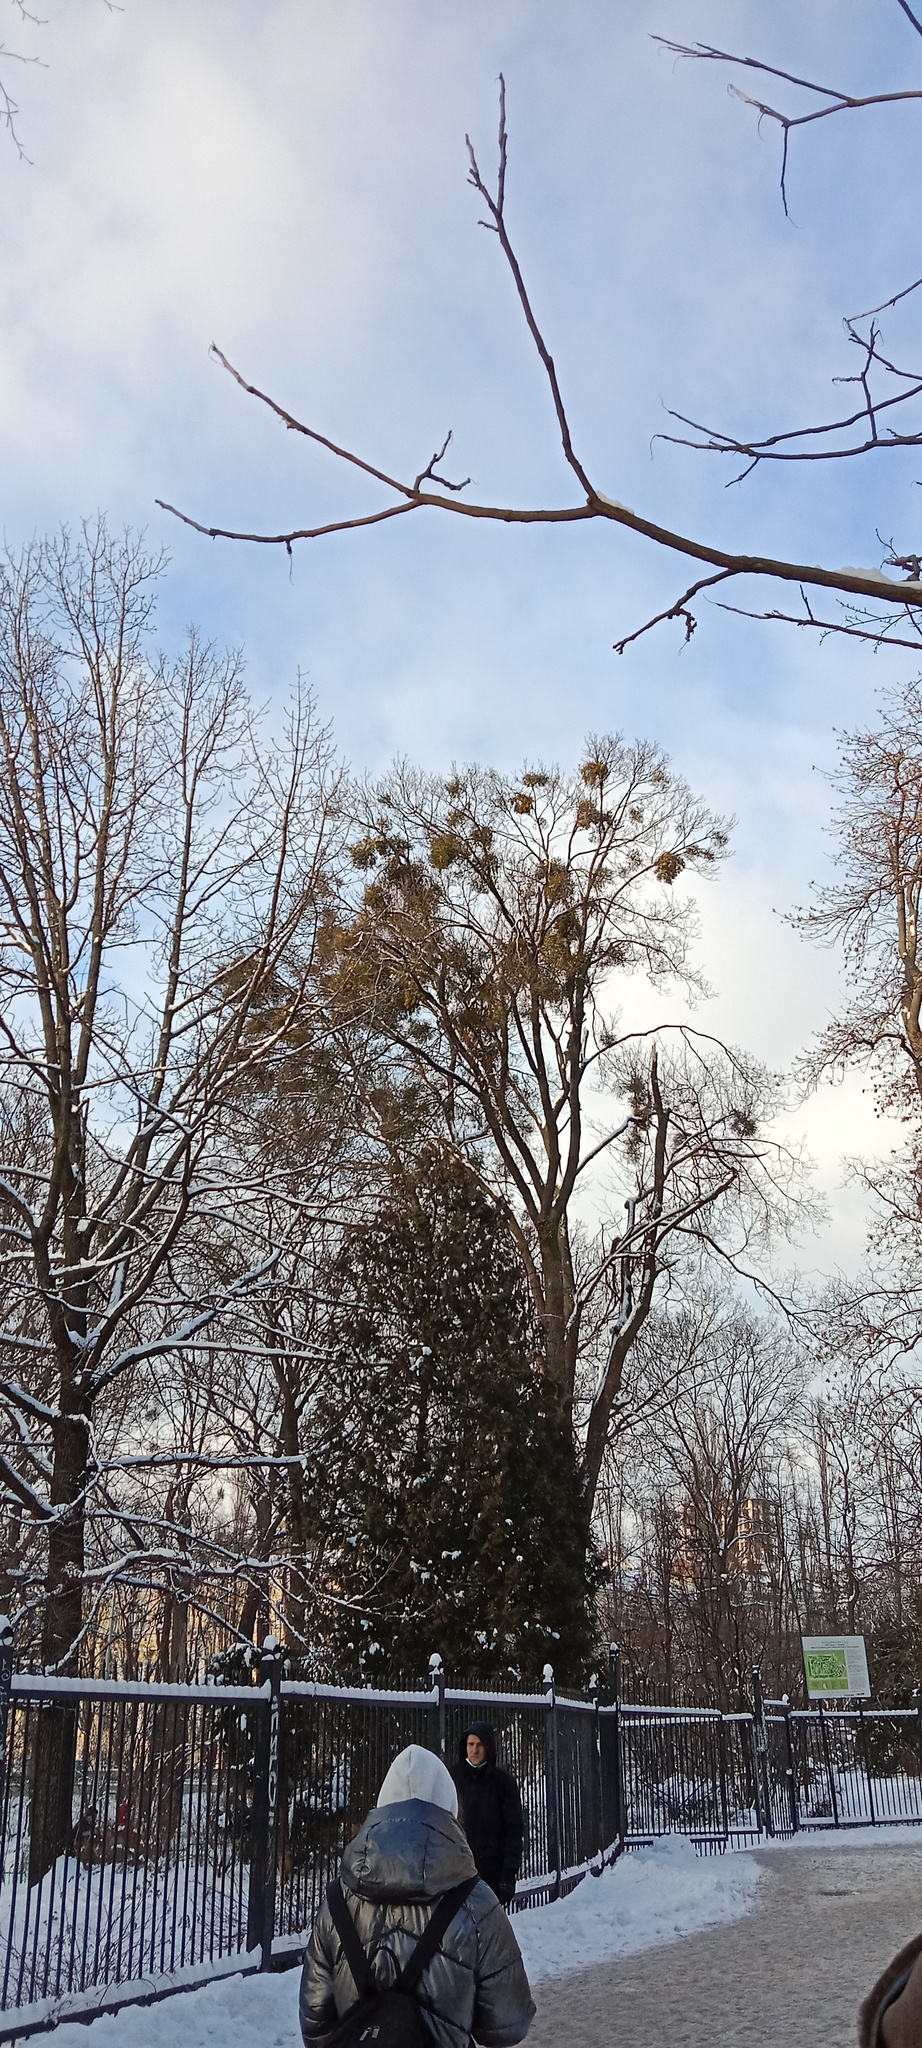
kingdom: Plantae
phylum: Tracheophyta
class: Magnoliopsida
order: Santalales
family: Viscaceae
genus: Viscum
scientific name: Viscum album
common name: Mistletoe
